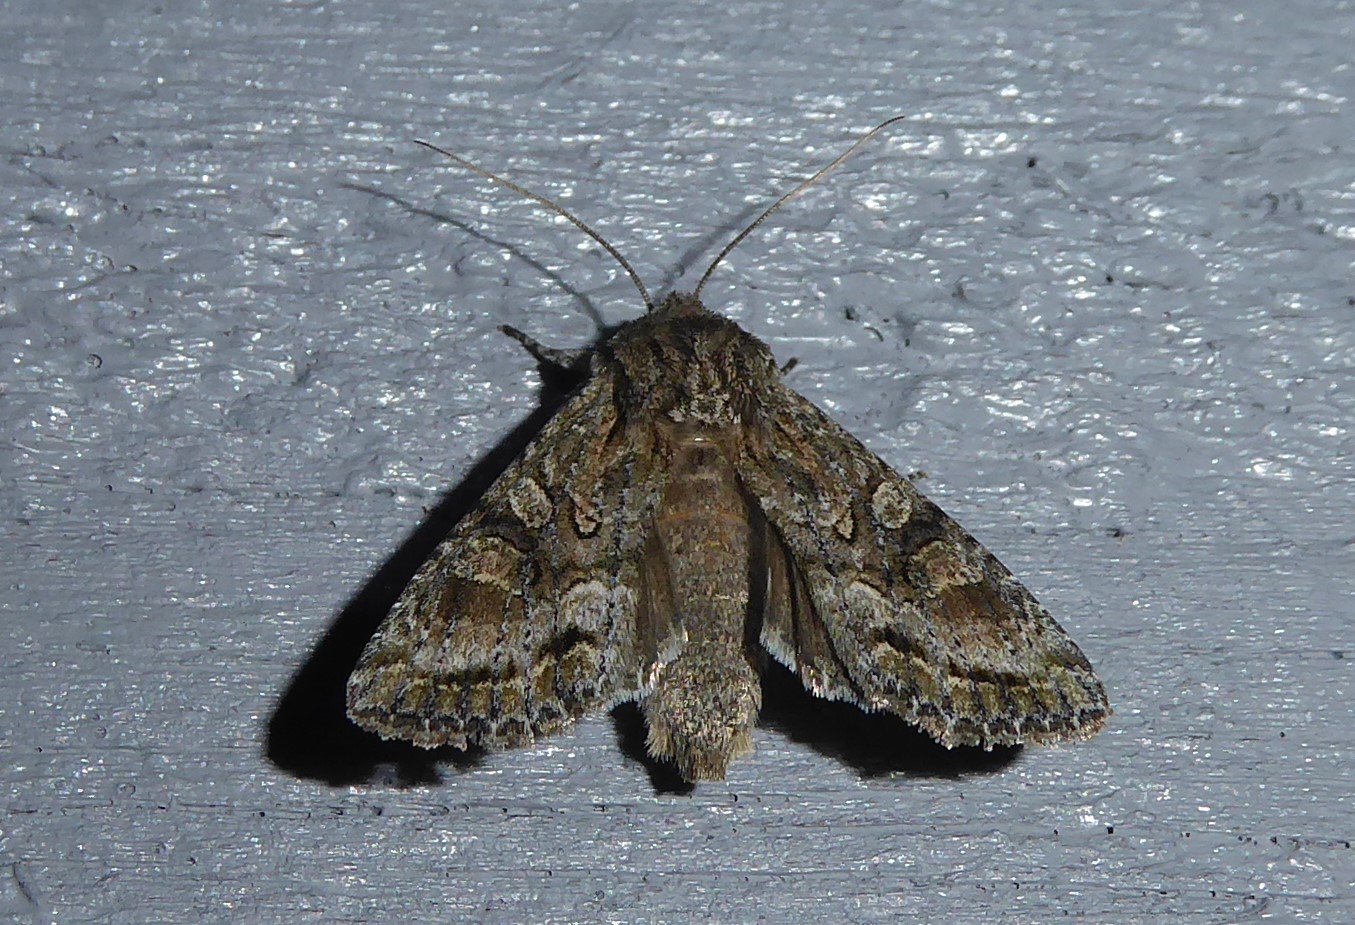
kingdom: Animalia
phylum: Arthropoda
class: Insecta
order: Lepidoptera
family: Noctuidae
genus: Ichneutica
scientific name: Ichneutica mutans
